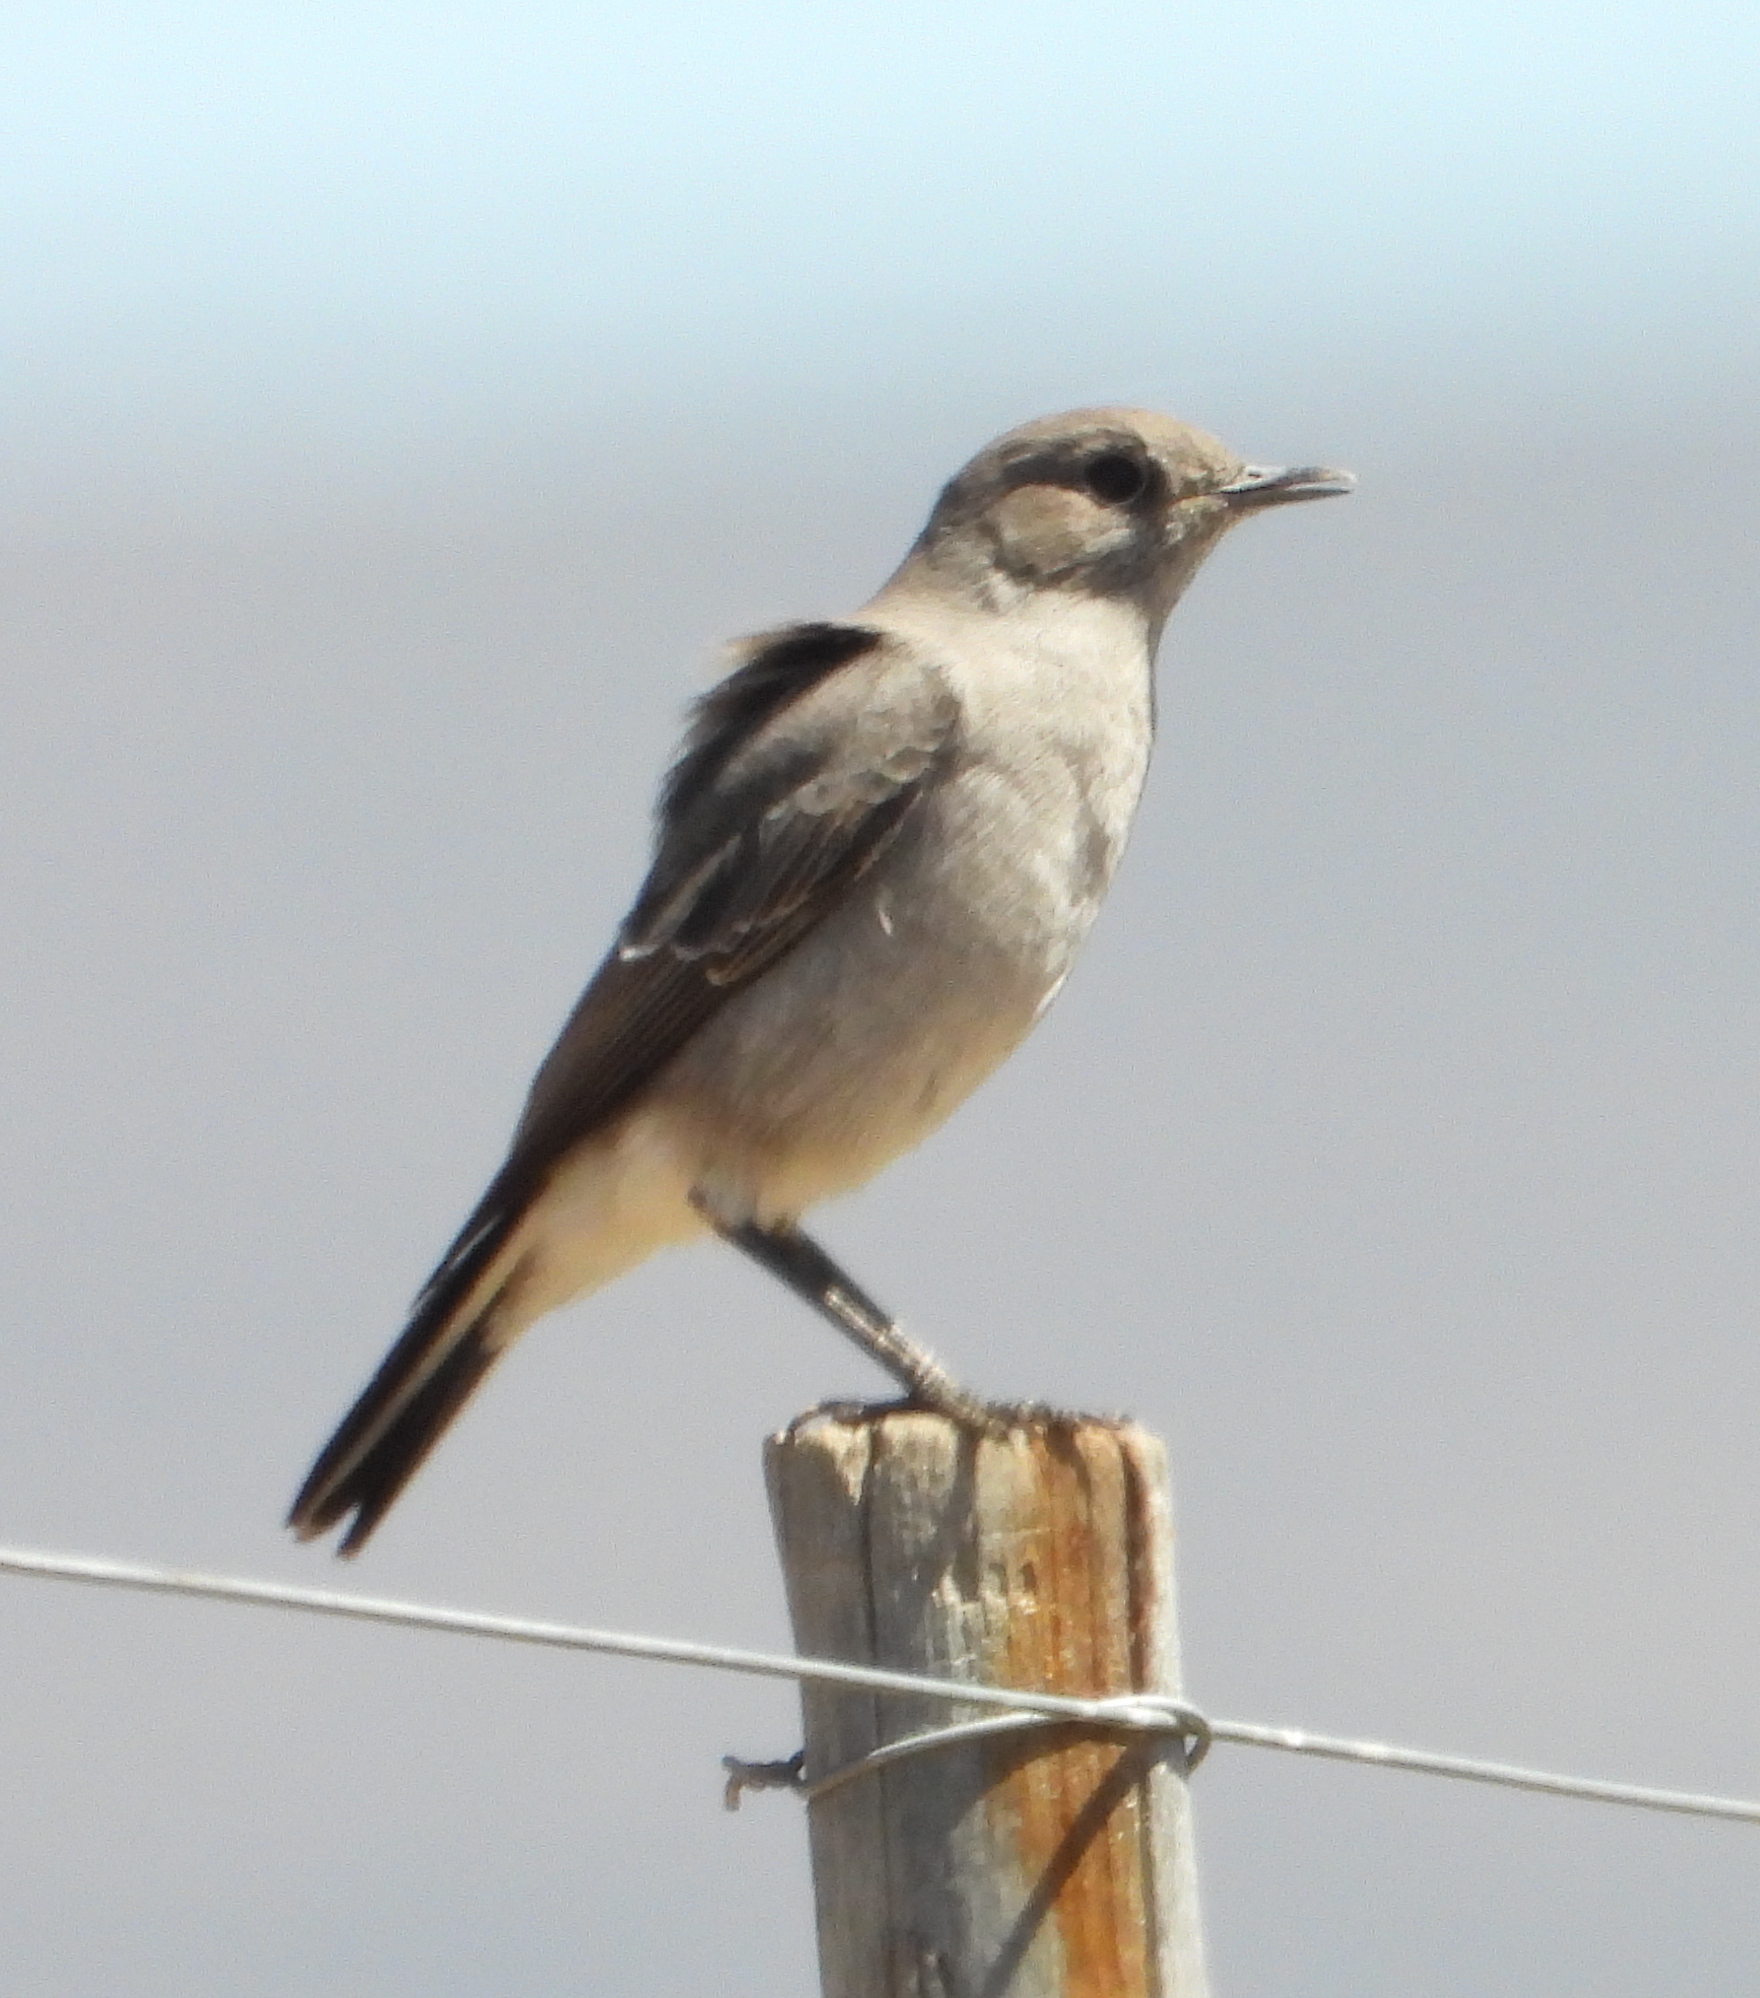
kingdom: Animalia
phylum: Chordata
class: Aves
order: Passeriformes
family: Muscicapidae
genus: Emarginata
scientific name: Emarginata schlegelii
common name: Karoo chat
